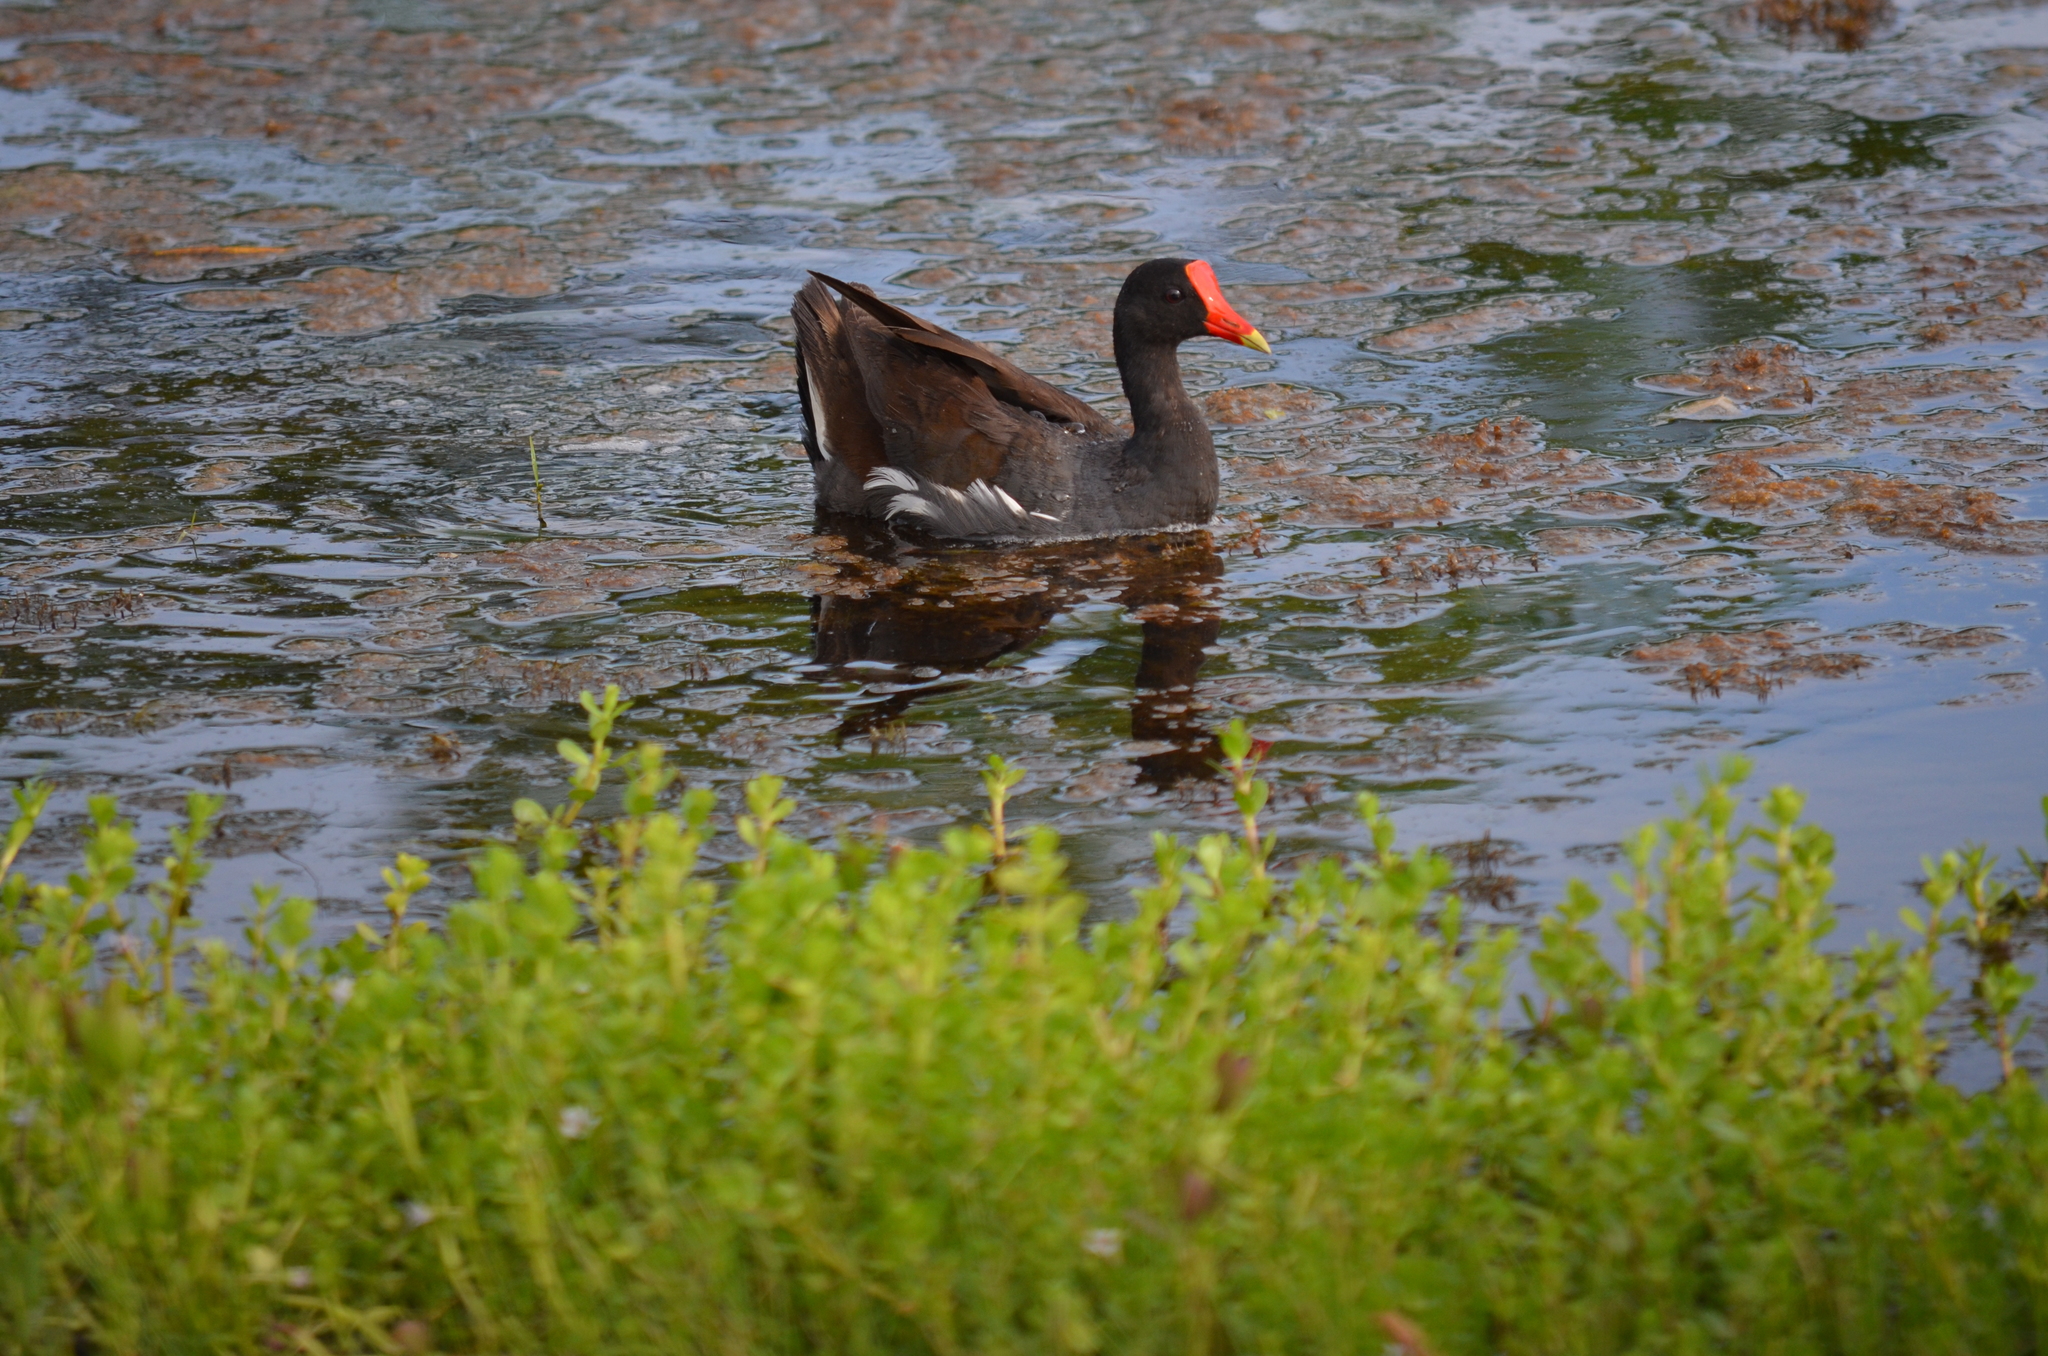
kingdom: Animalia
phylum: Chordata
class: Aves
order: Gruiformes
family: Rallidae
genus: Gallinula
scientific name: Gallinula chloropus
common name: Common moorhen
